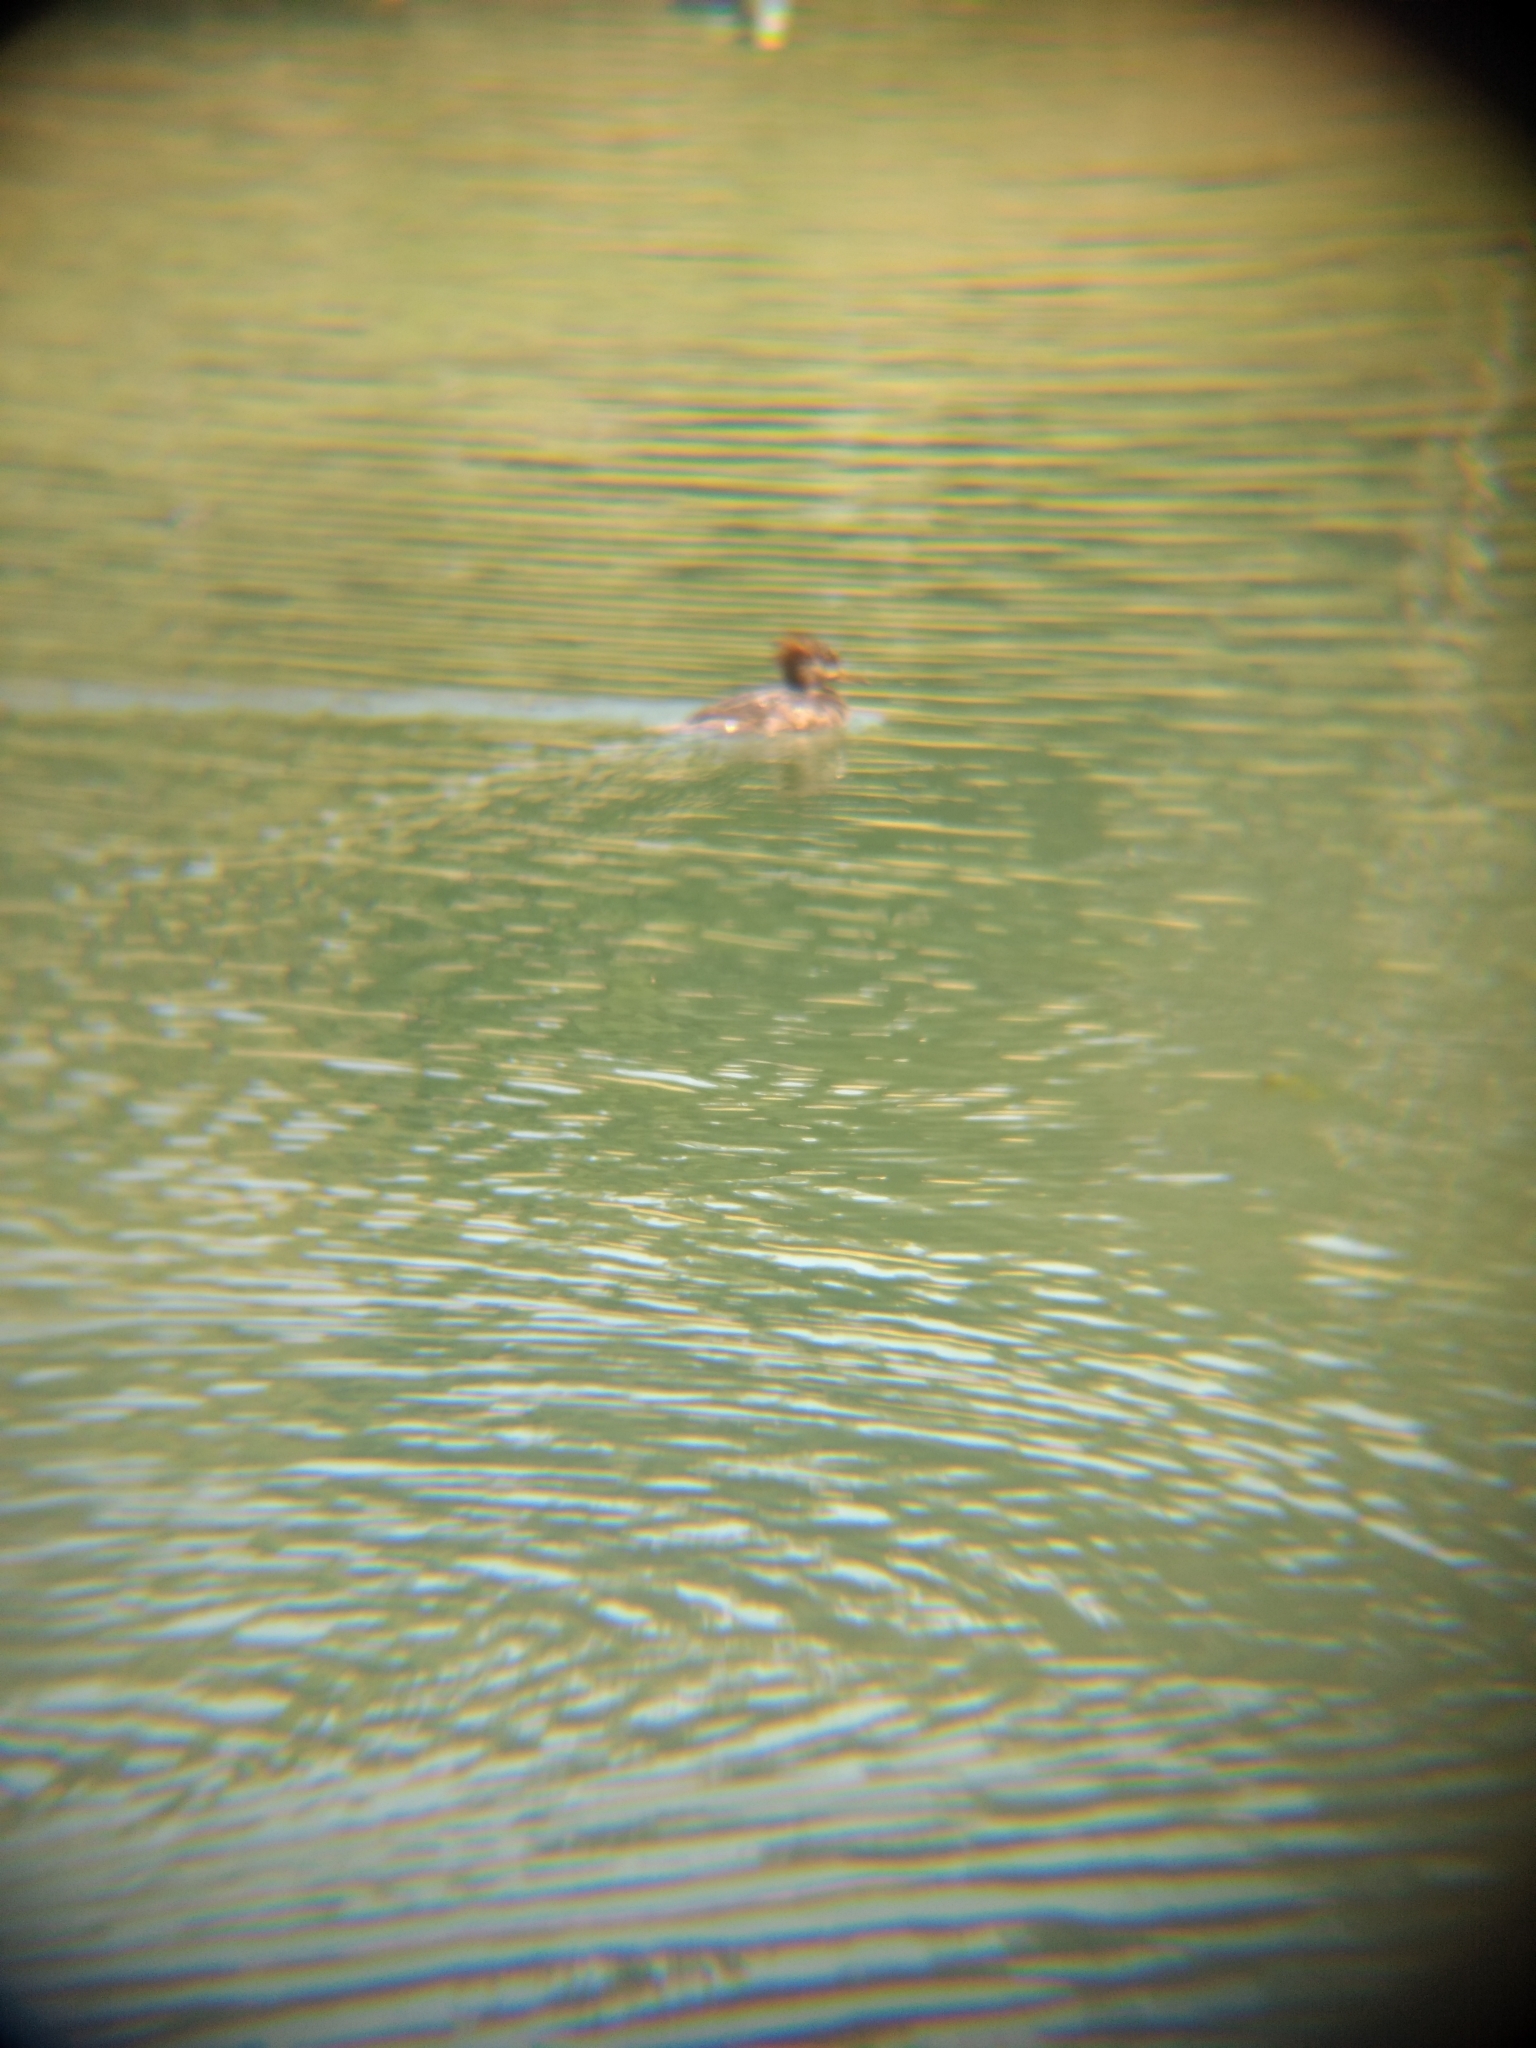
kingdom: Animalia
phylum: Chordata
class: Aves
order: Anseriformes
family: Anatidae
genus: Lophodytes
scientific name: Lophodytes cucullatus
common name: Hooded merganser
